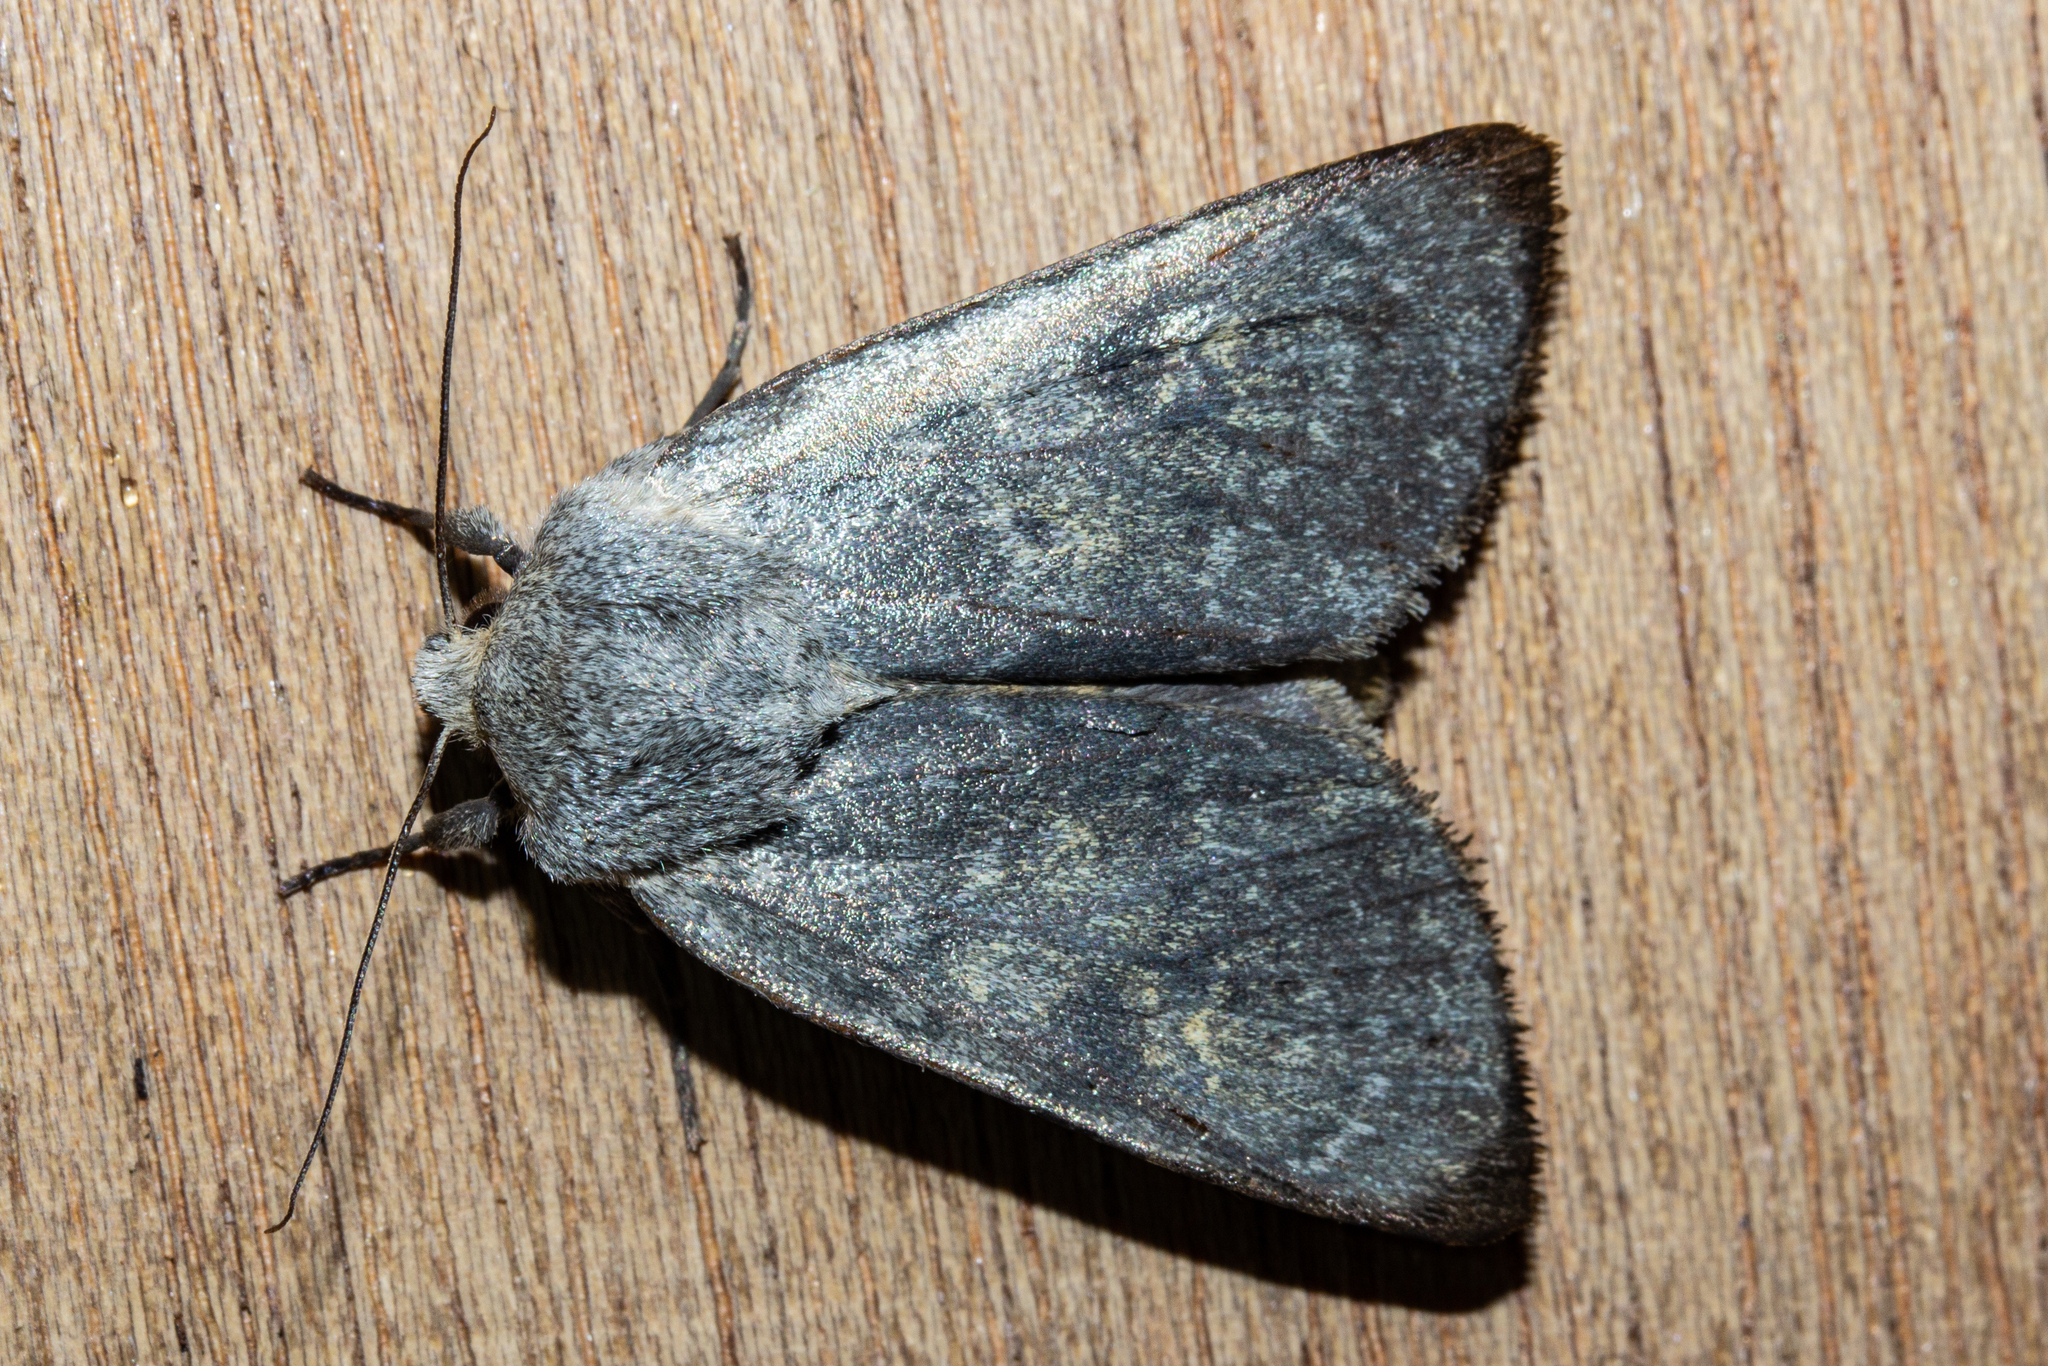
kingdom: Animalia
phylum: Arthropoda
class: Insecta
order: Lepidoptera
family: Noctuidae
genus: Ichneutica
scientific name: Ichneutica
